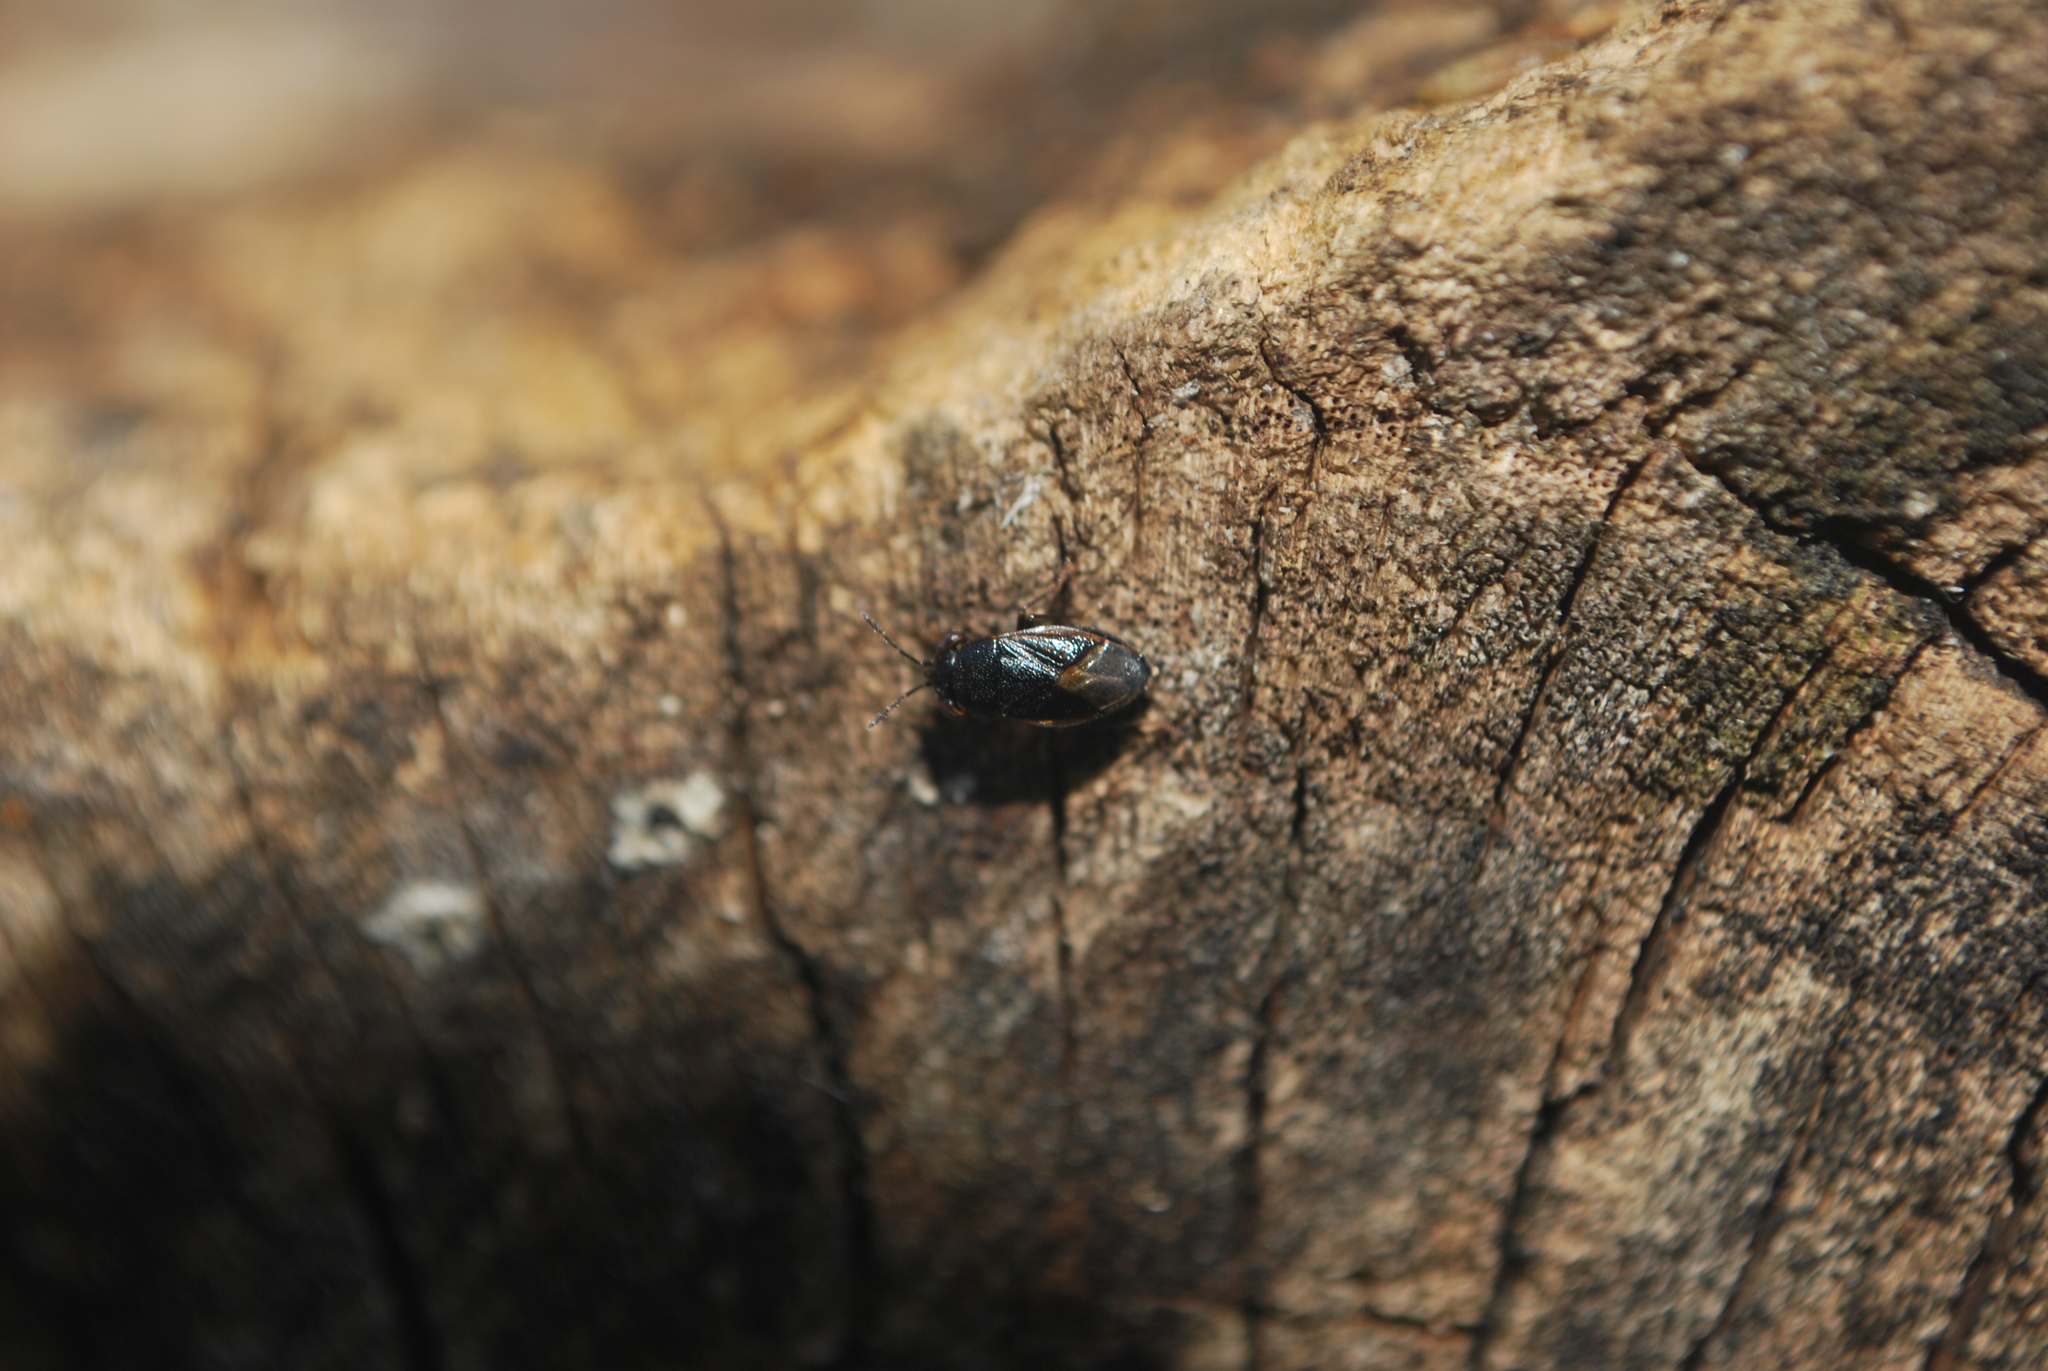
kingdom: Animalia
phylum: Arthropoda
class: Insecta
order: Hemiptera
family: Geocoridae
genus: Geocoris
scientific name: Geocoris uliginosus
